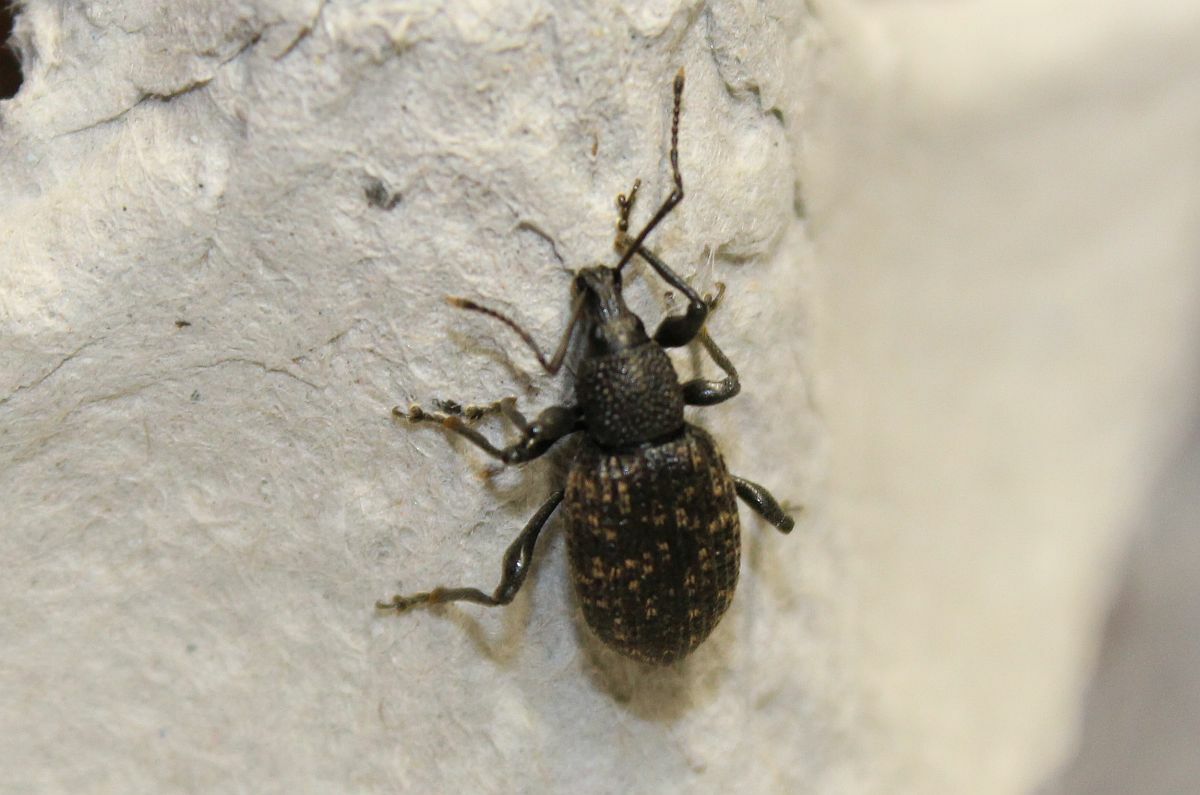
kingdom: Animalia
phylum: Arthropoda
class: Insecta
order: Coleoptera
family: Curculionidae
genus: Otiorhynchus
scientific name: Otiorhynchus sulcatus
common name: Black vine weevil
